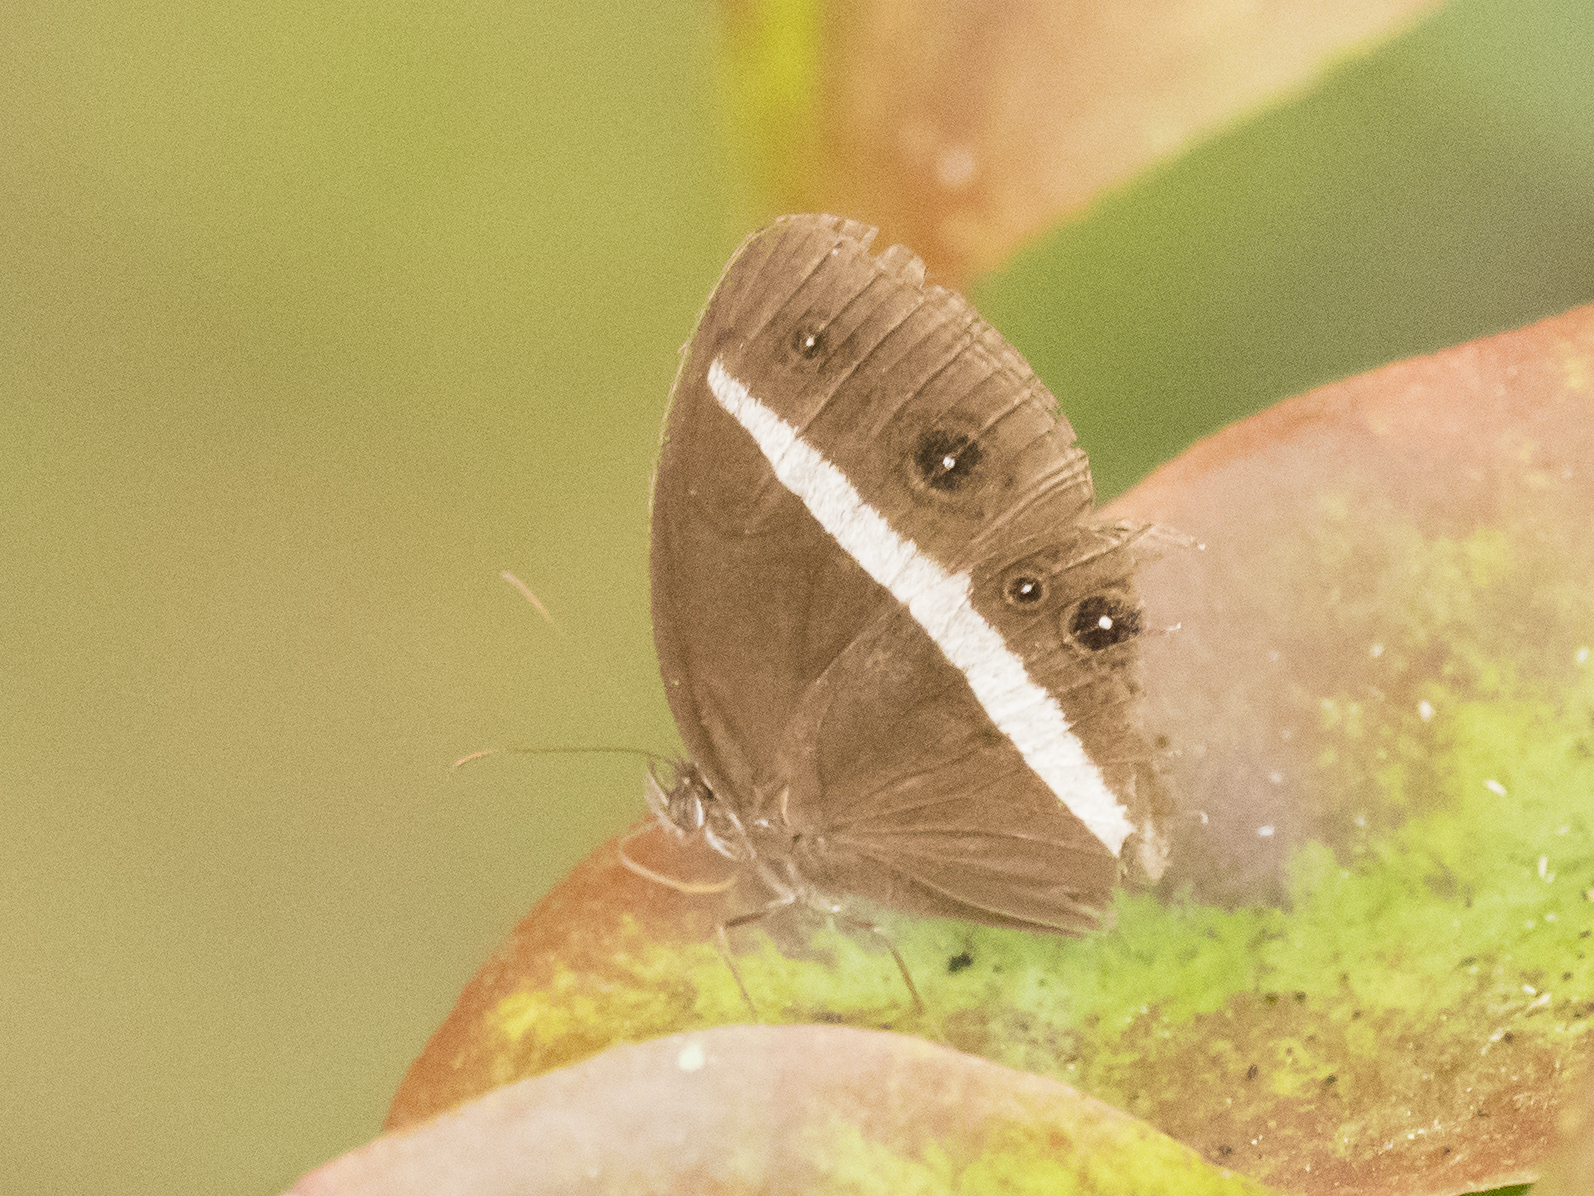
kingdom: Animalia
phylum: Arthropoda
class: Insecta
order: Lepidoptera
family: Nymphalidae
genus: Orsotriaena
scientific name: Orsotriaena medus
